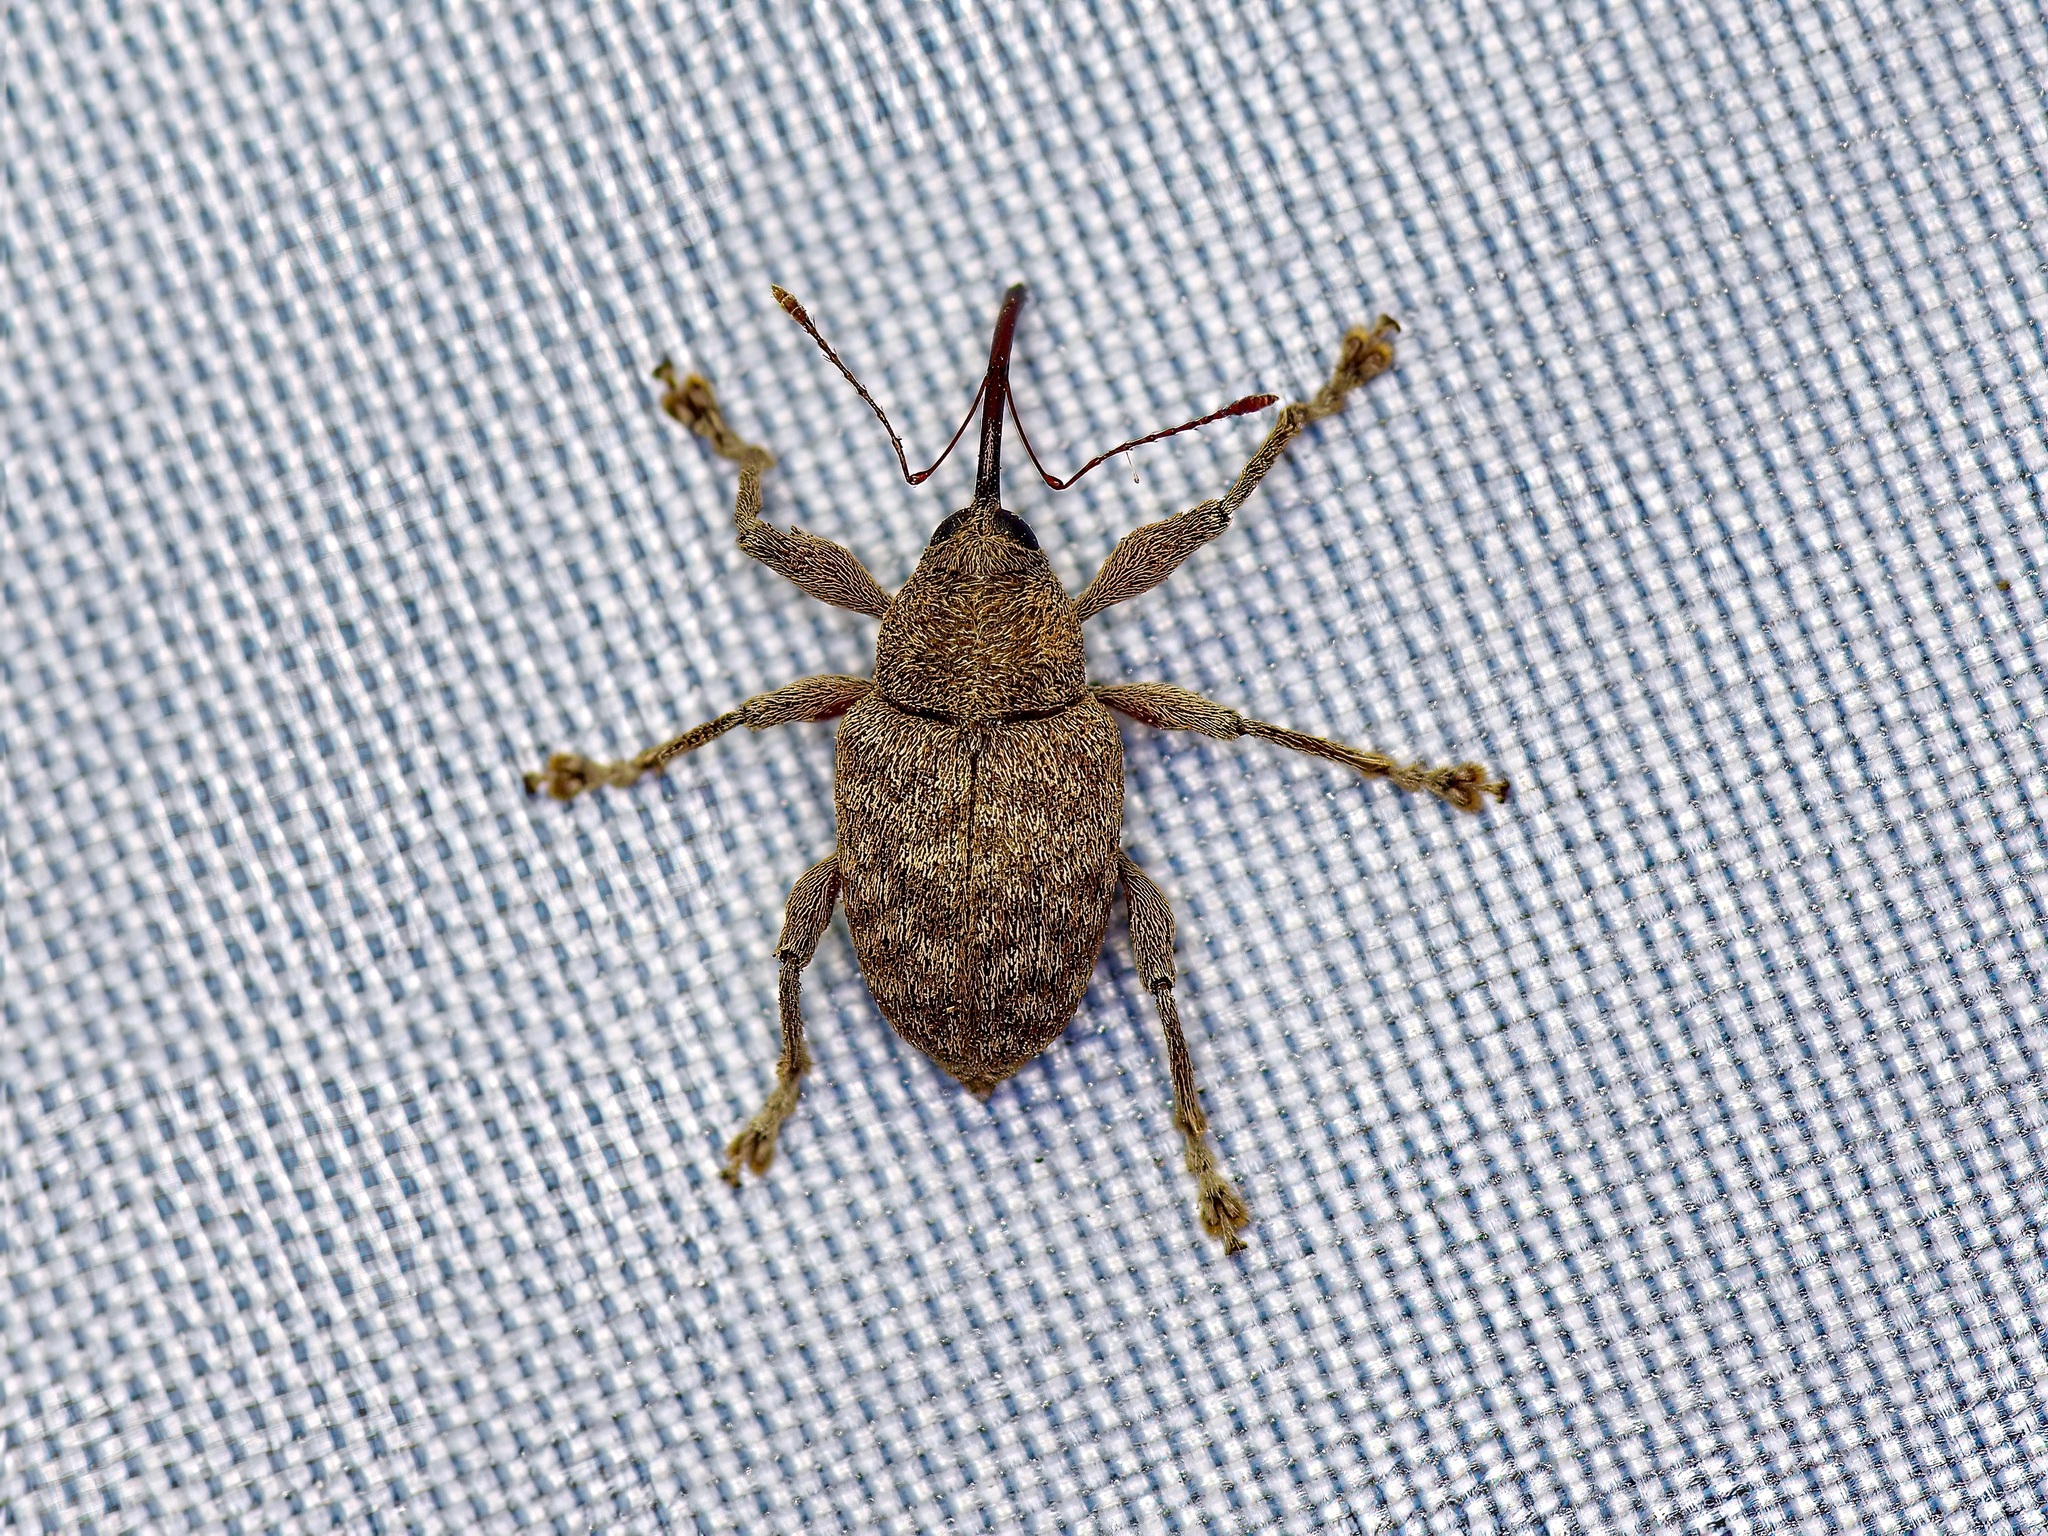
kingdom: Animalia
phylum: Arthropoda
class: Insecta
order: Coleoptera
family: Curculionidae
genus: Curculio
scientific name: Curculio
